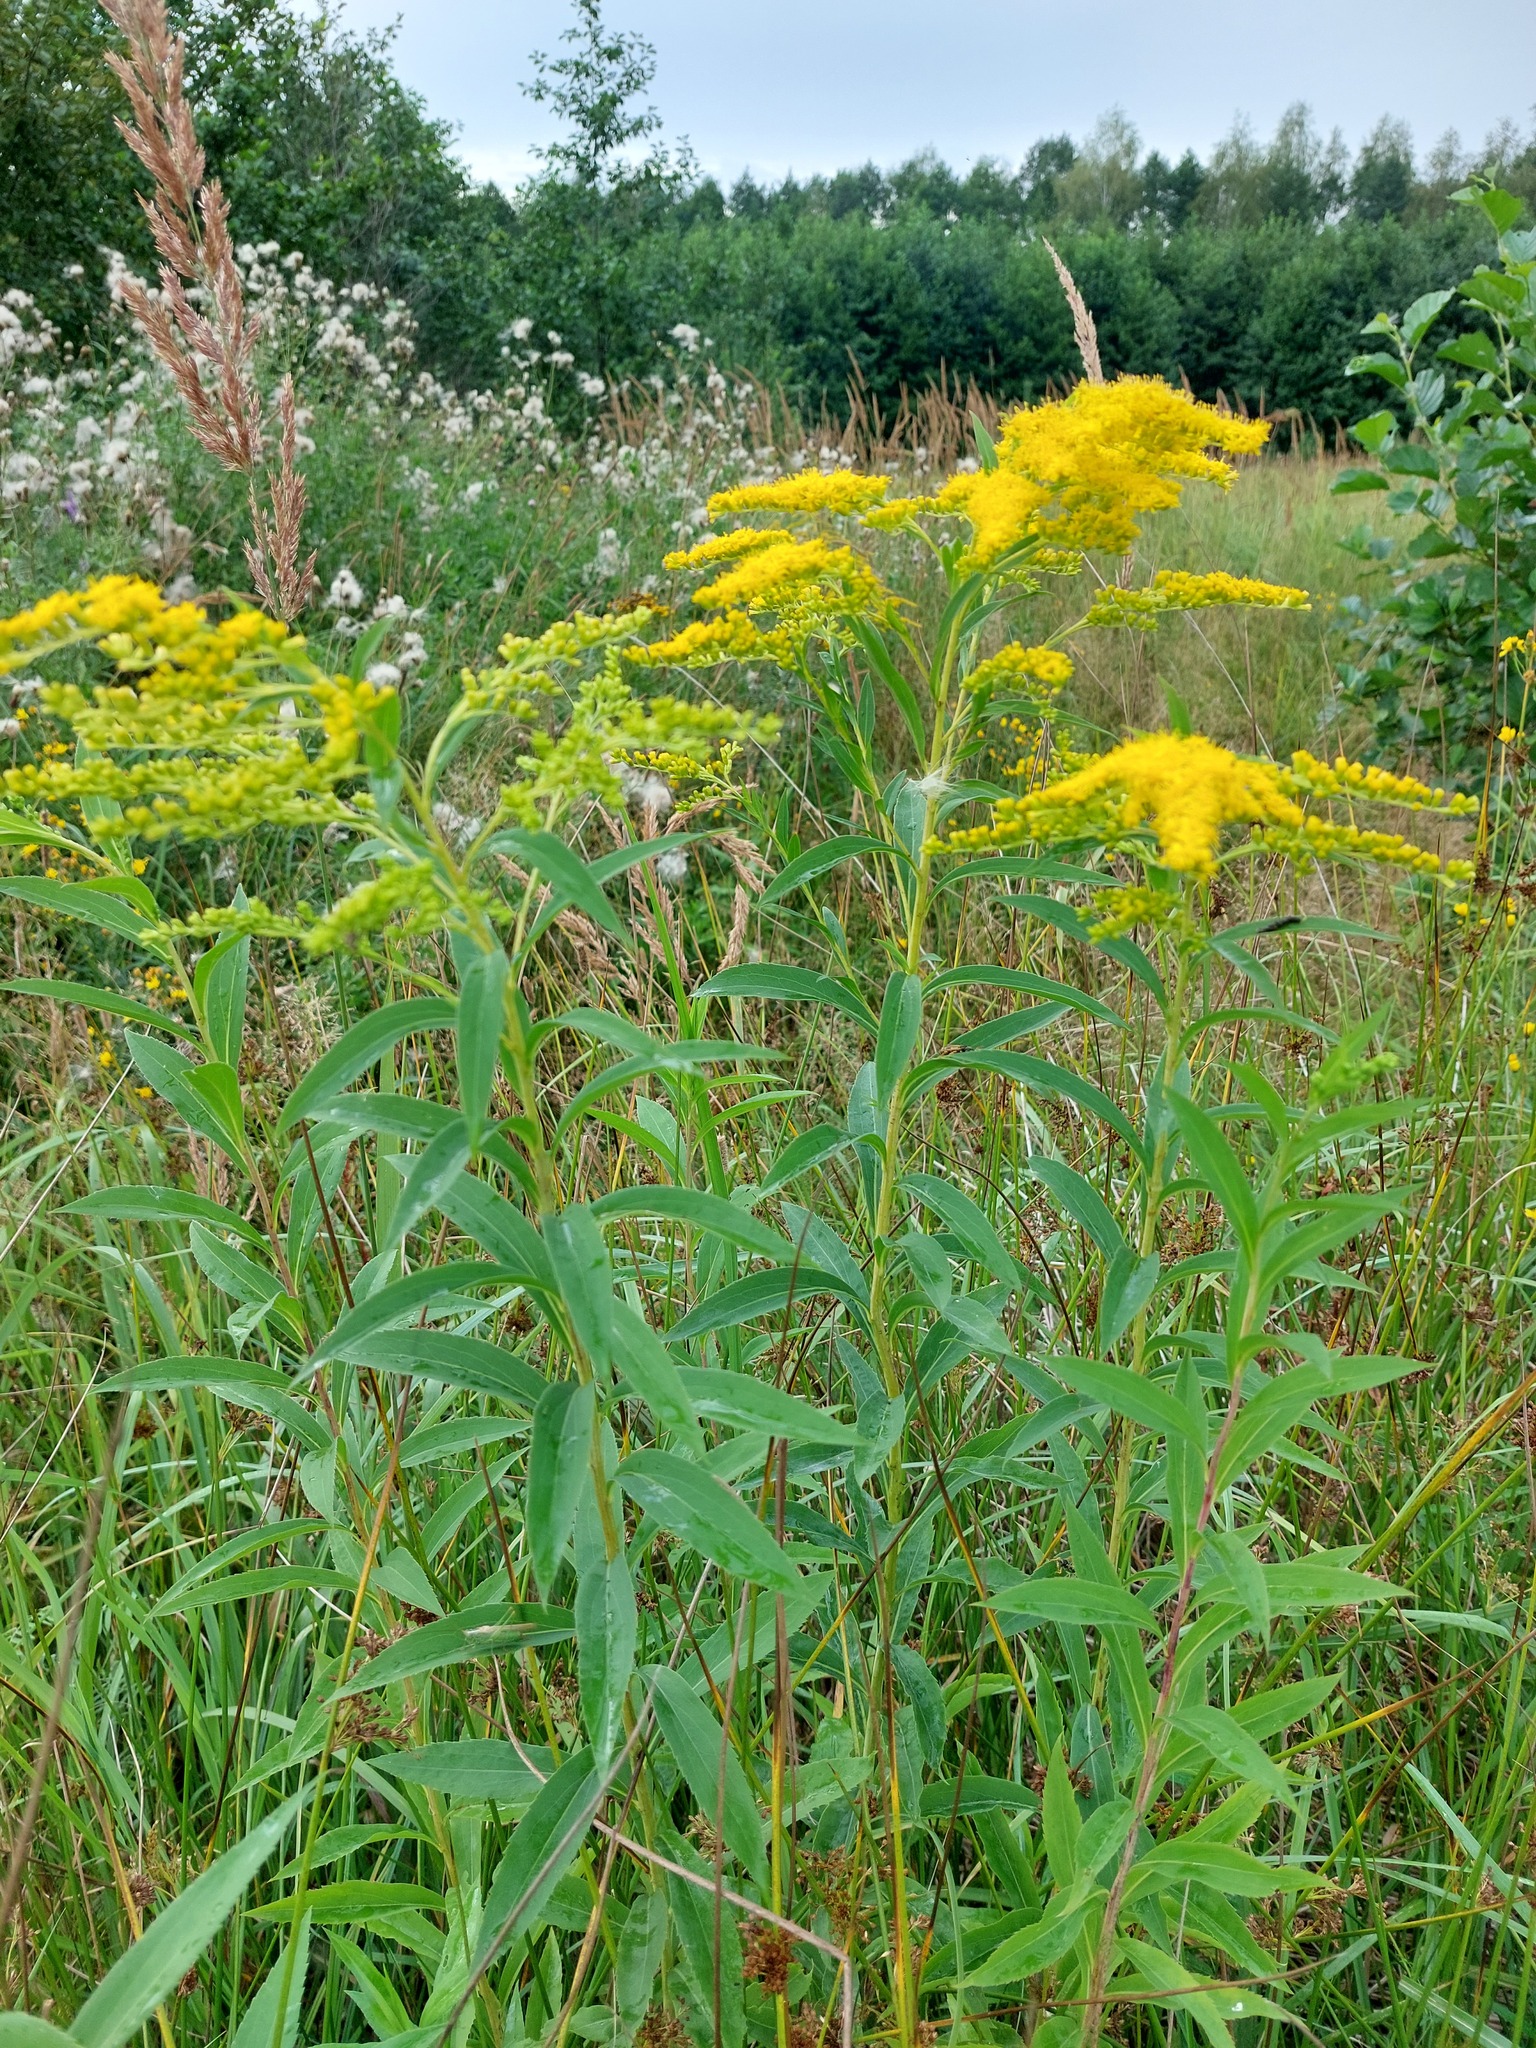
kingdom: Plantae
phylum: Tracheophyta
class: Magnoliopsida
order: Asterales
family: Asteraceae
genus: Solidago
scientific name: Solidago gigantea
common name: Giant goldenrod
